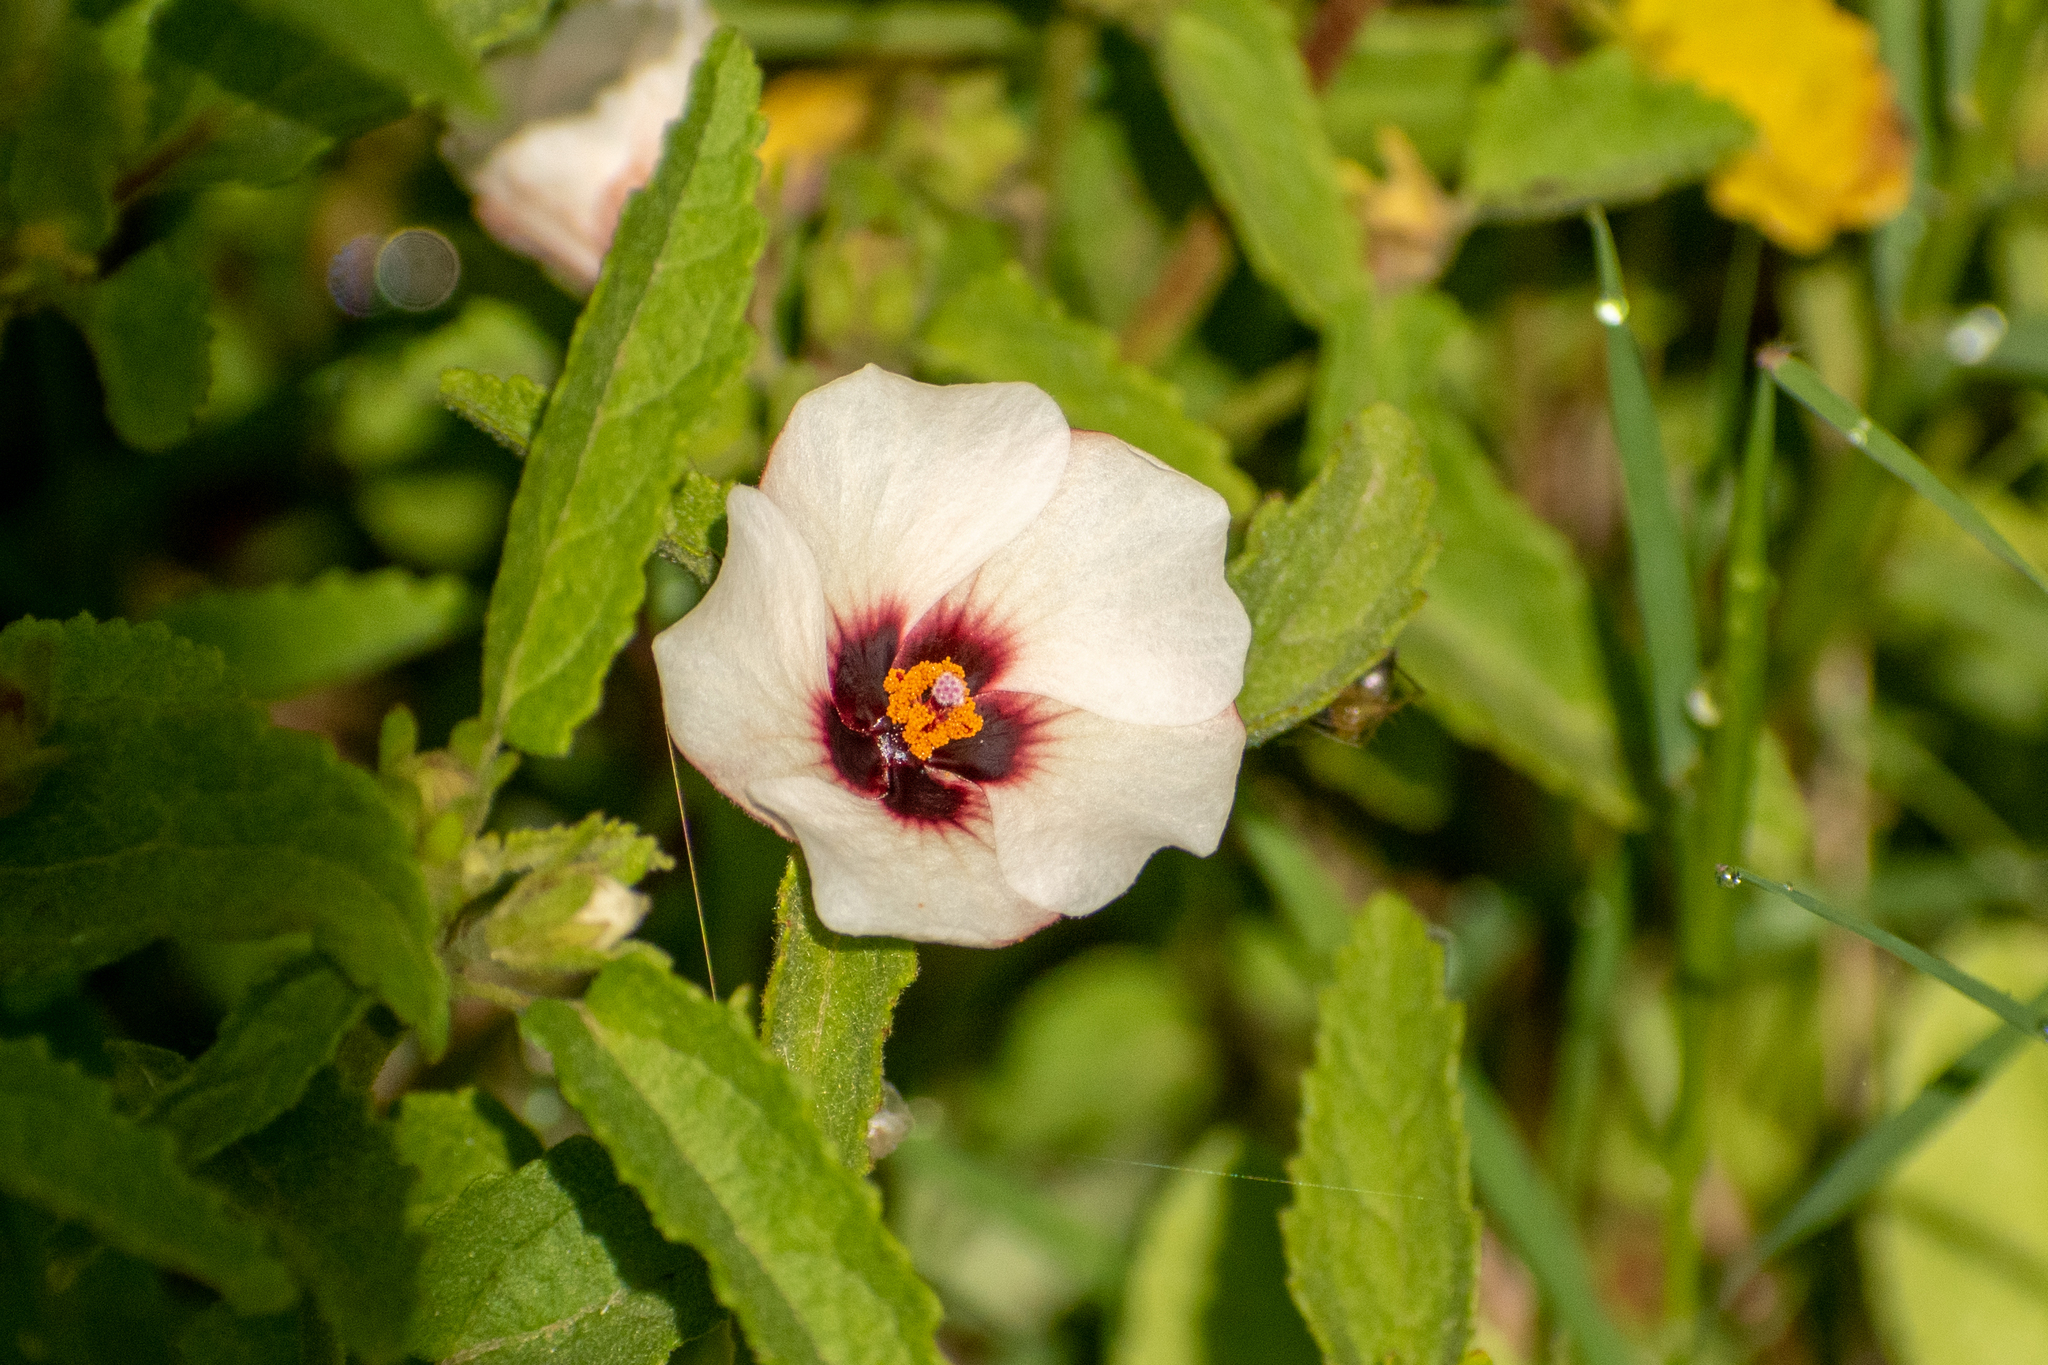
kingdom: Plantae
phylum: Tracheophyta
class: Magnoliopsida
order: Malvales
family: Malvaceae
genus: Pavonia
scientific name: Pavonia betonicaefolia
